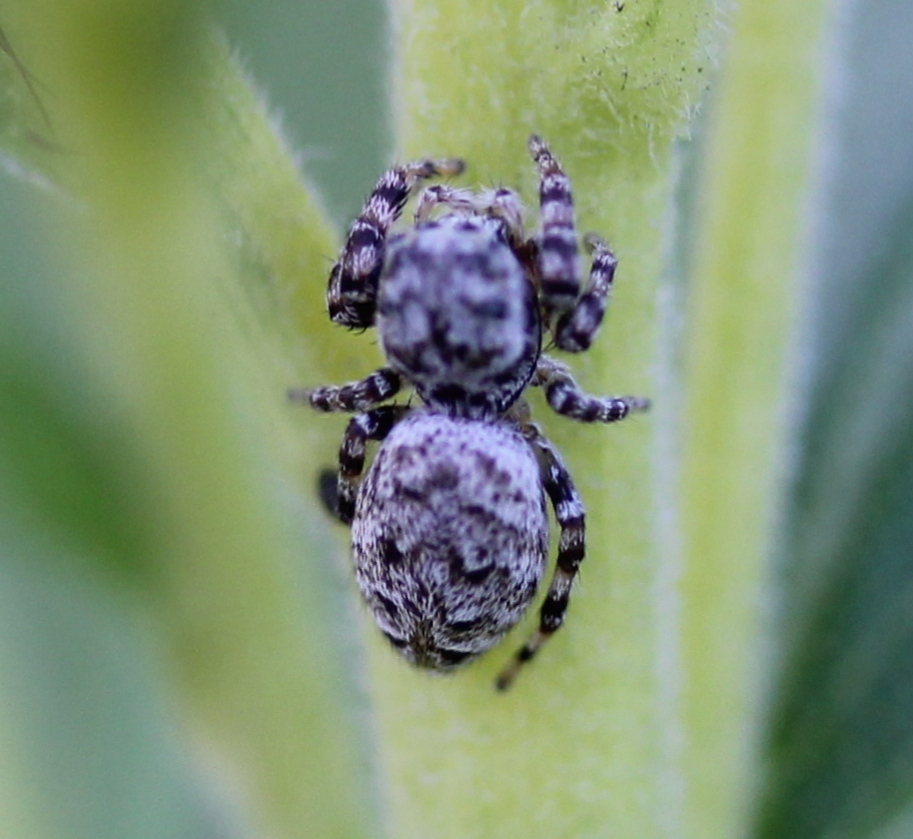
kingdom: Animalia
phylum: Arthropoda
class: Arachnida
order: Araneae
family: Salticidae
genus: Pelegrina
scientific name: Pelegrina galathea
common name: Jumping spiders
